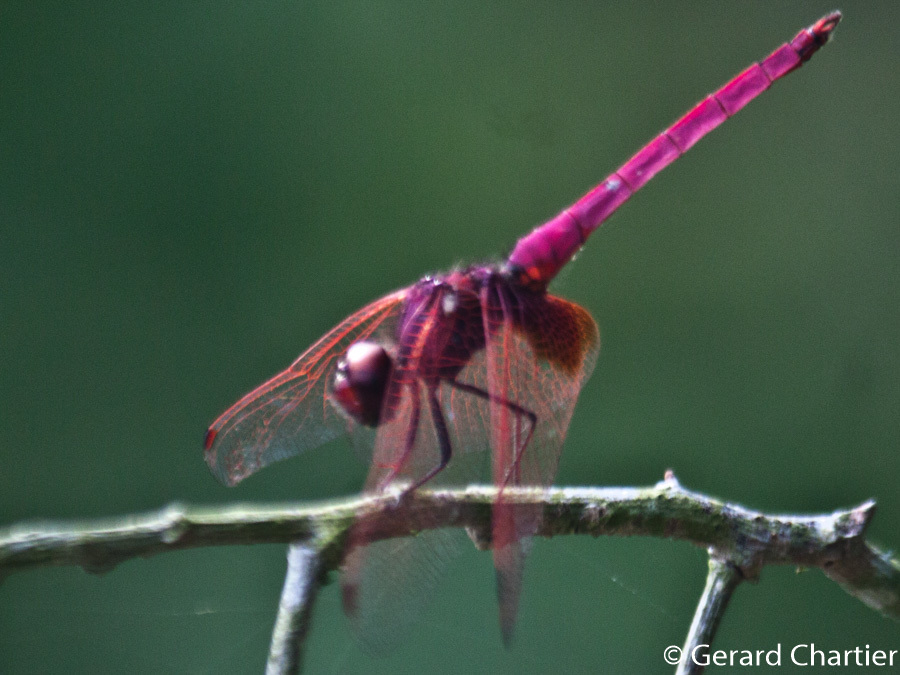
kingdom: Animalia
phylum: Arthropoda
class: Insecta
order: Odonata
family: Libellulidae
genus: Trithemis
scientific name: Trithemis aurora
